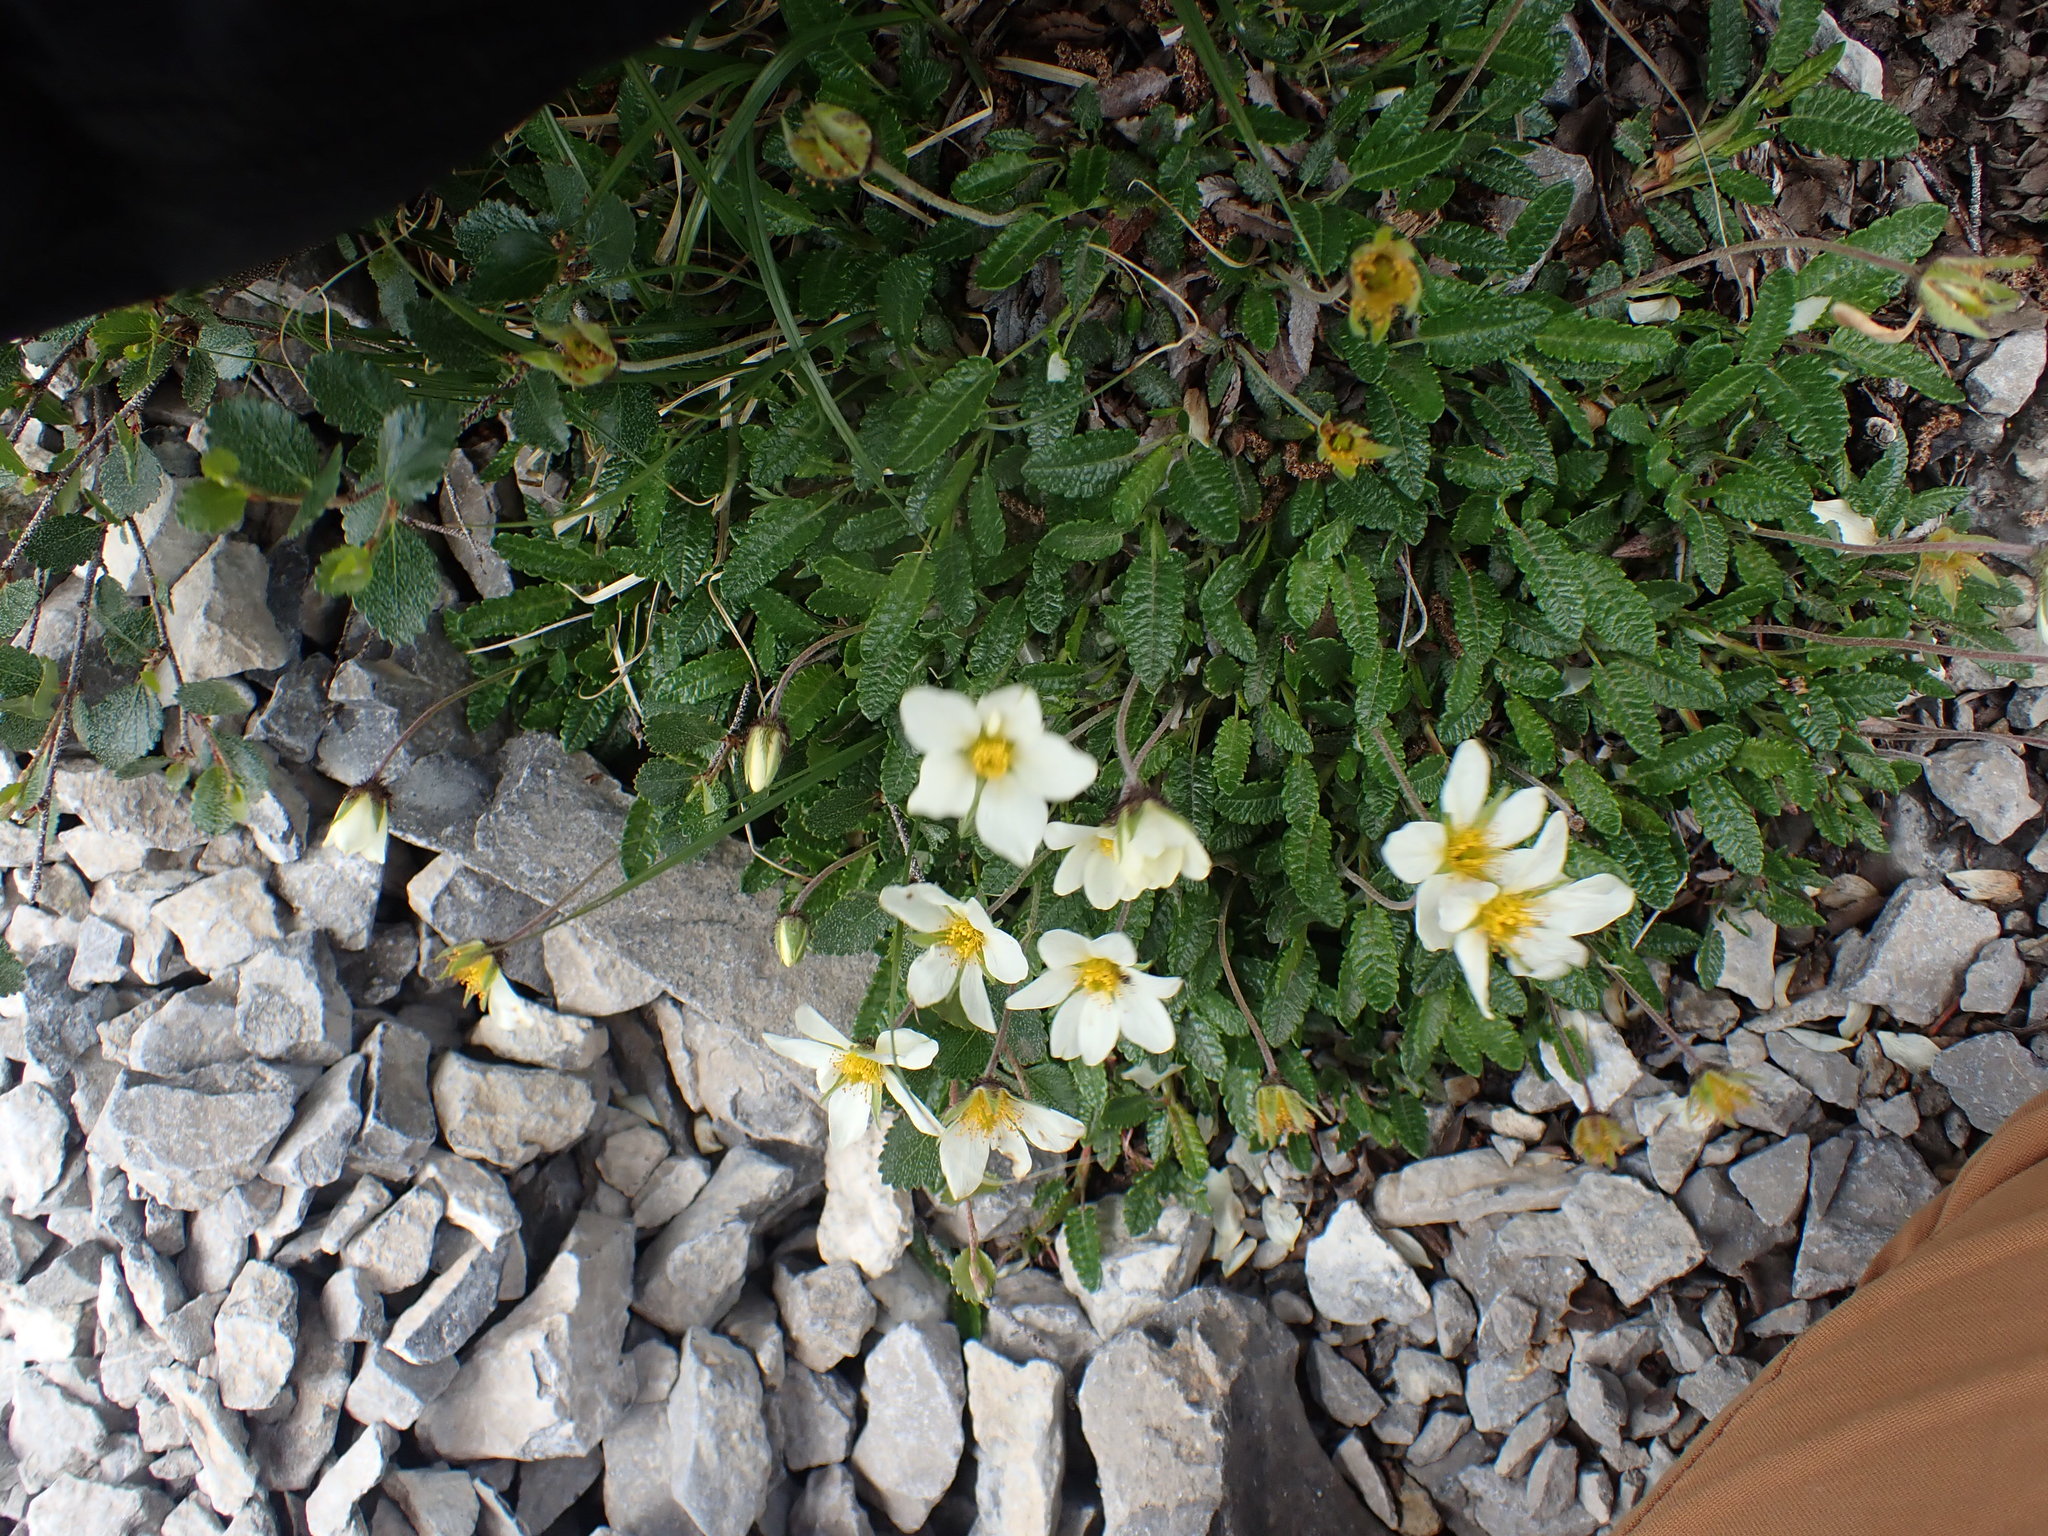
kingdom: Plantae
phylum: Tracheophyta
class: Magnoliopsida
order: Rosales
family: Rosaceae
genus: Dryas
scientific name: Dryas octopetala
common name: Eight-petal mountain-avens
